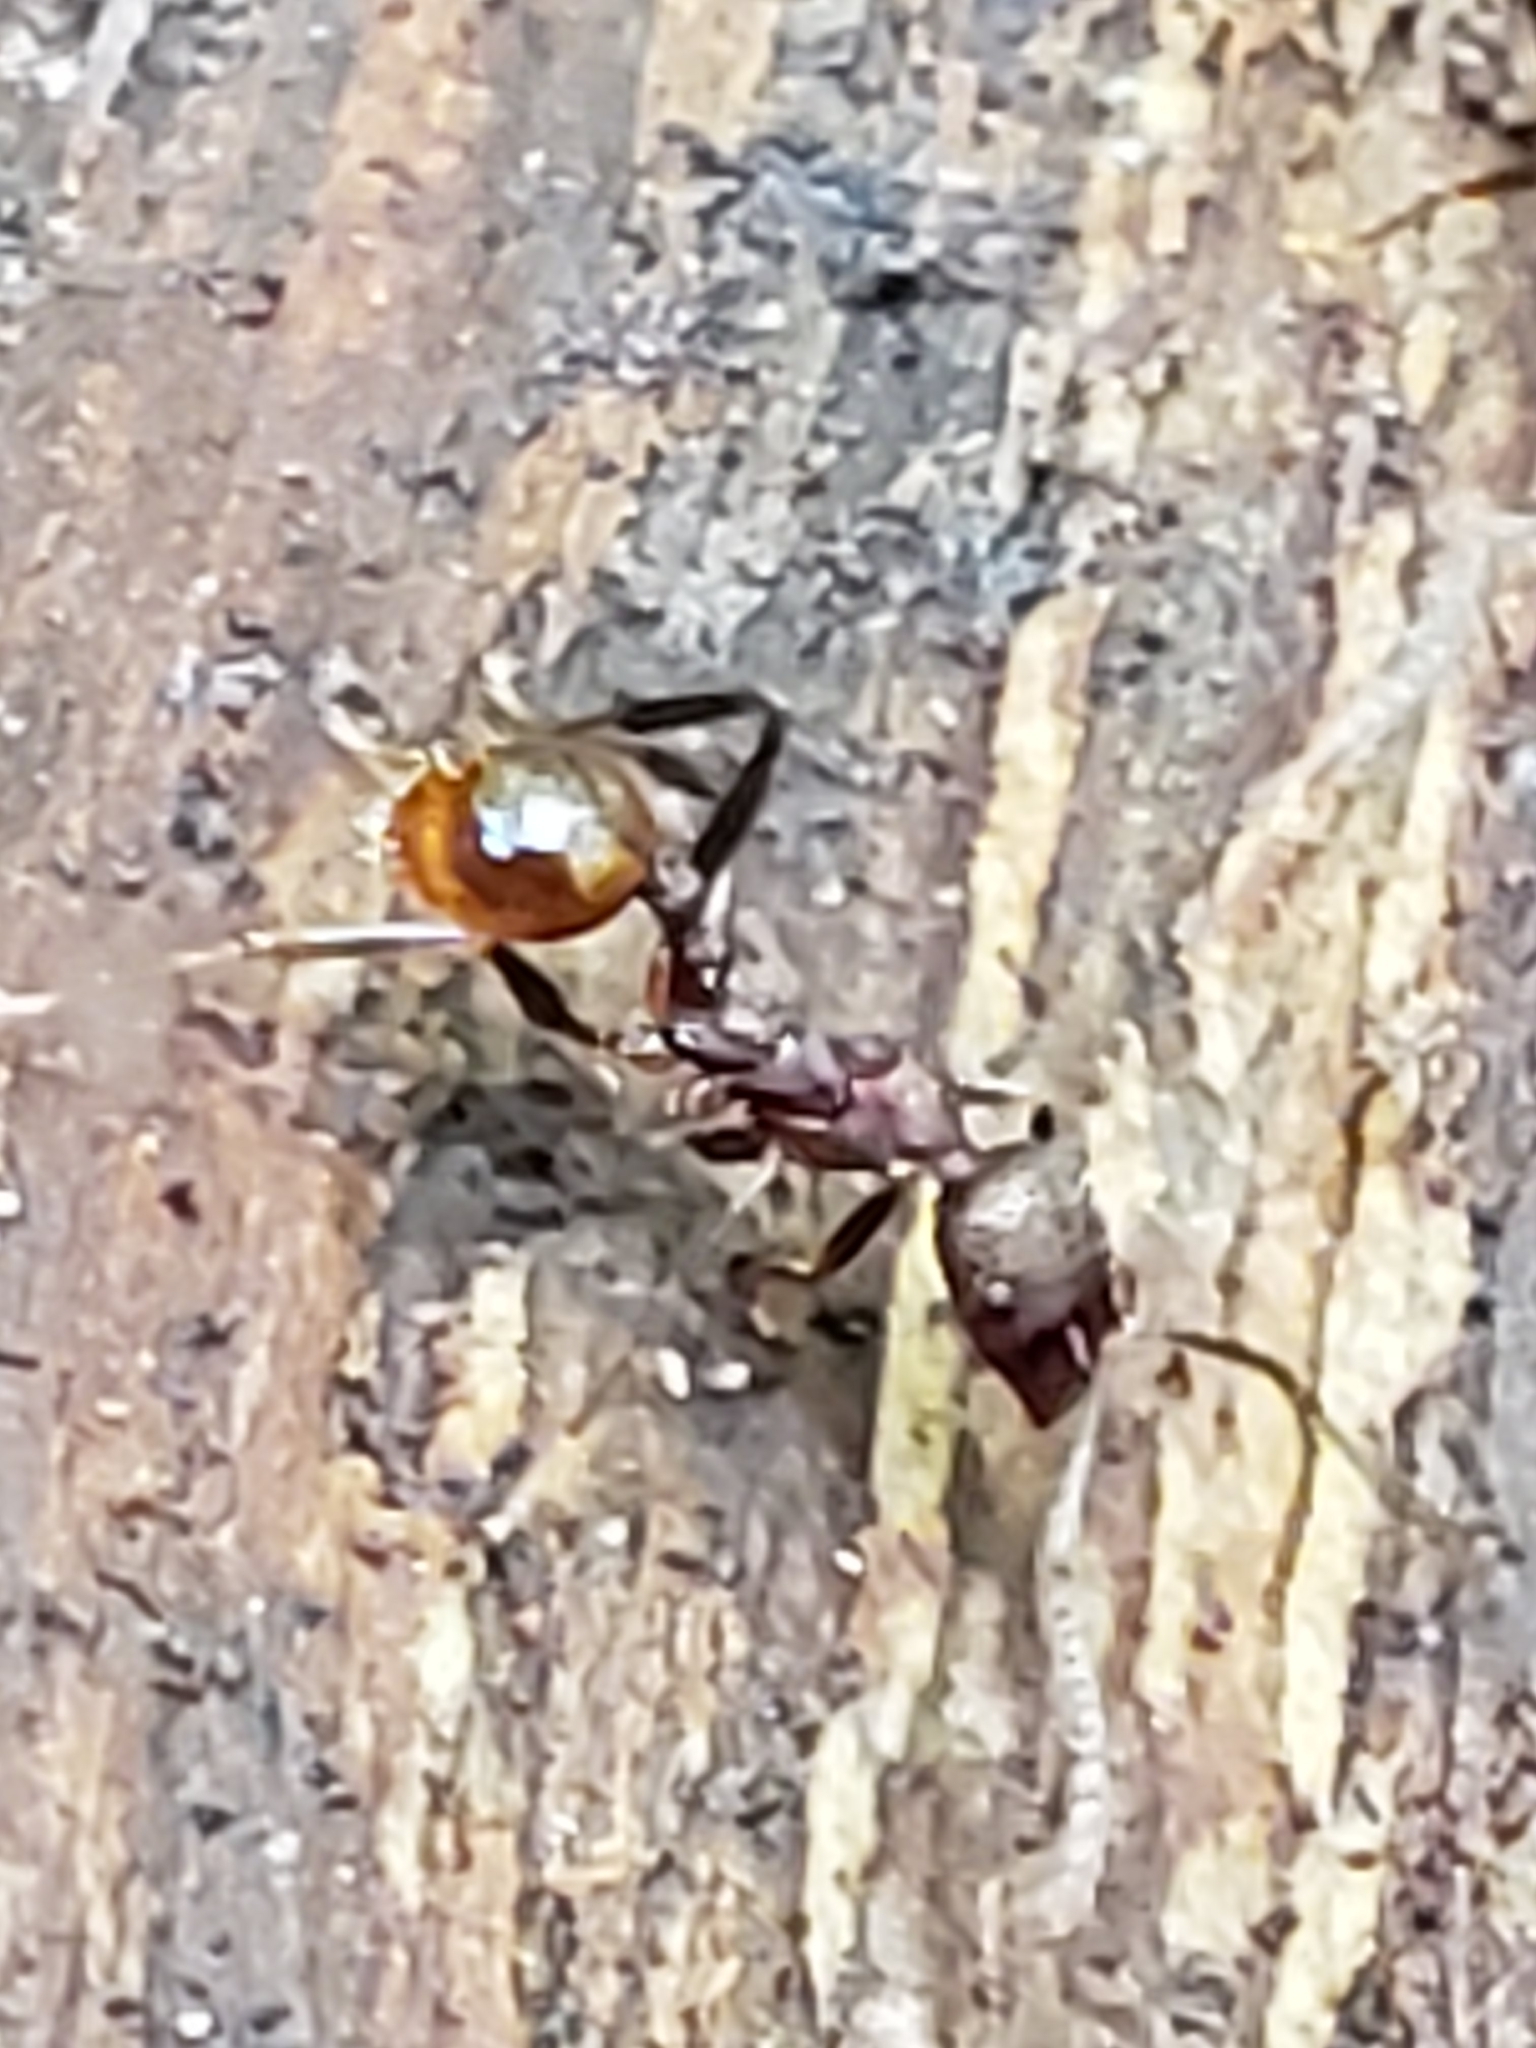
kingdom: Animalia
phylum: Arthropoda
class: Insecta
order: Hymenoptera
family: Formicidae
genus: Aphaenogaster
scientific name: Aphaenogaster fulva
